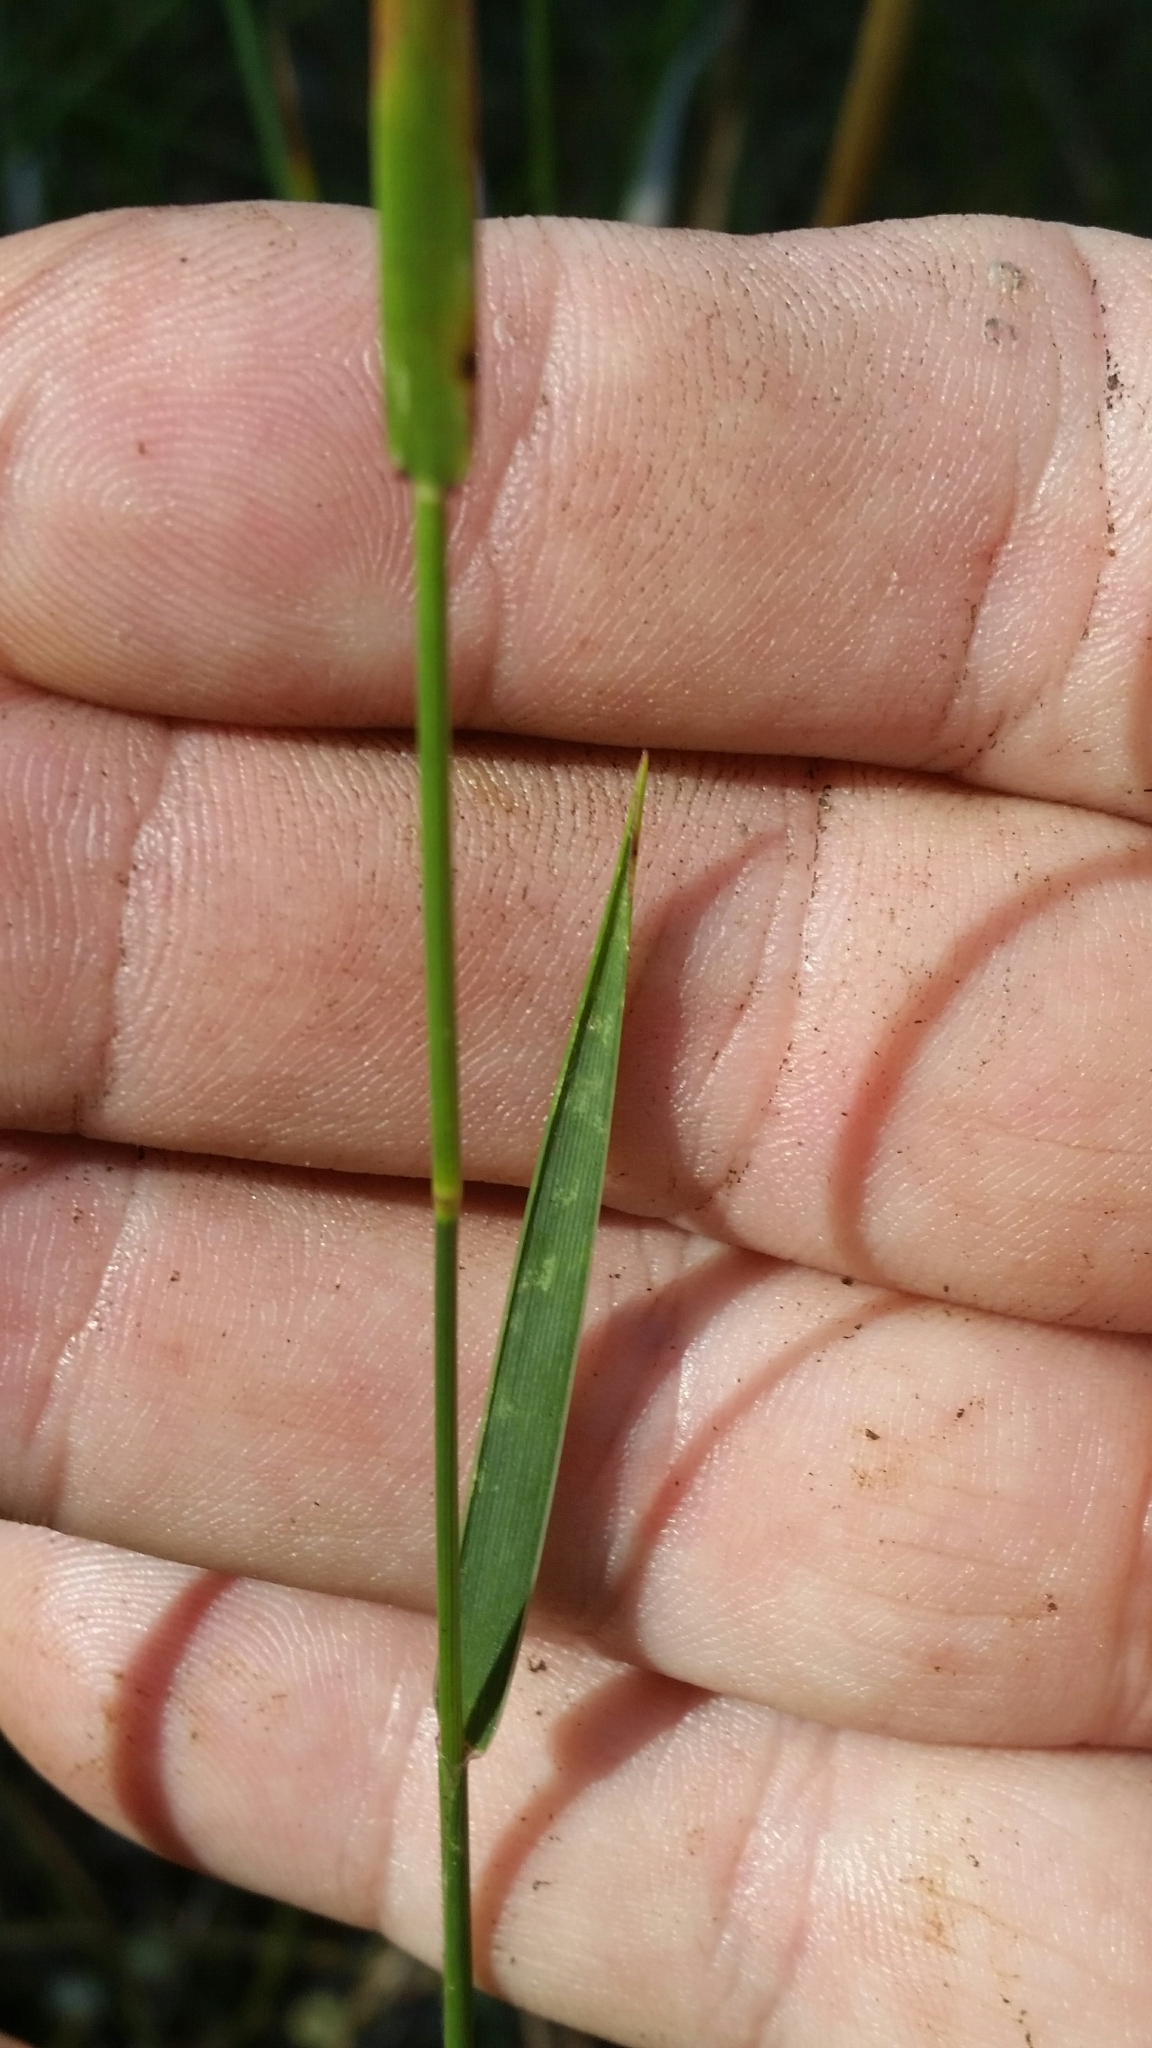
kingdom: Plantae
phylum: Tracheophyta
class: Liliopsida
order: Poales
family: Poaceae
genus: Amphicarpum
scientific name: Amphicarpum muehlenbergianum
